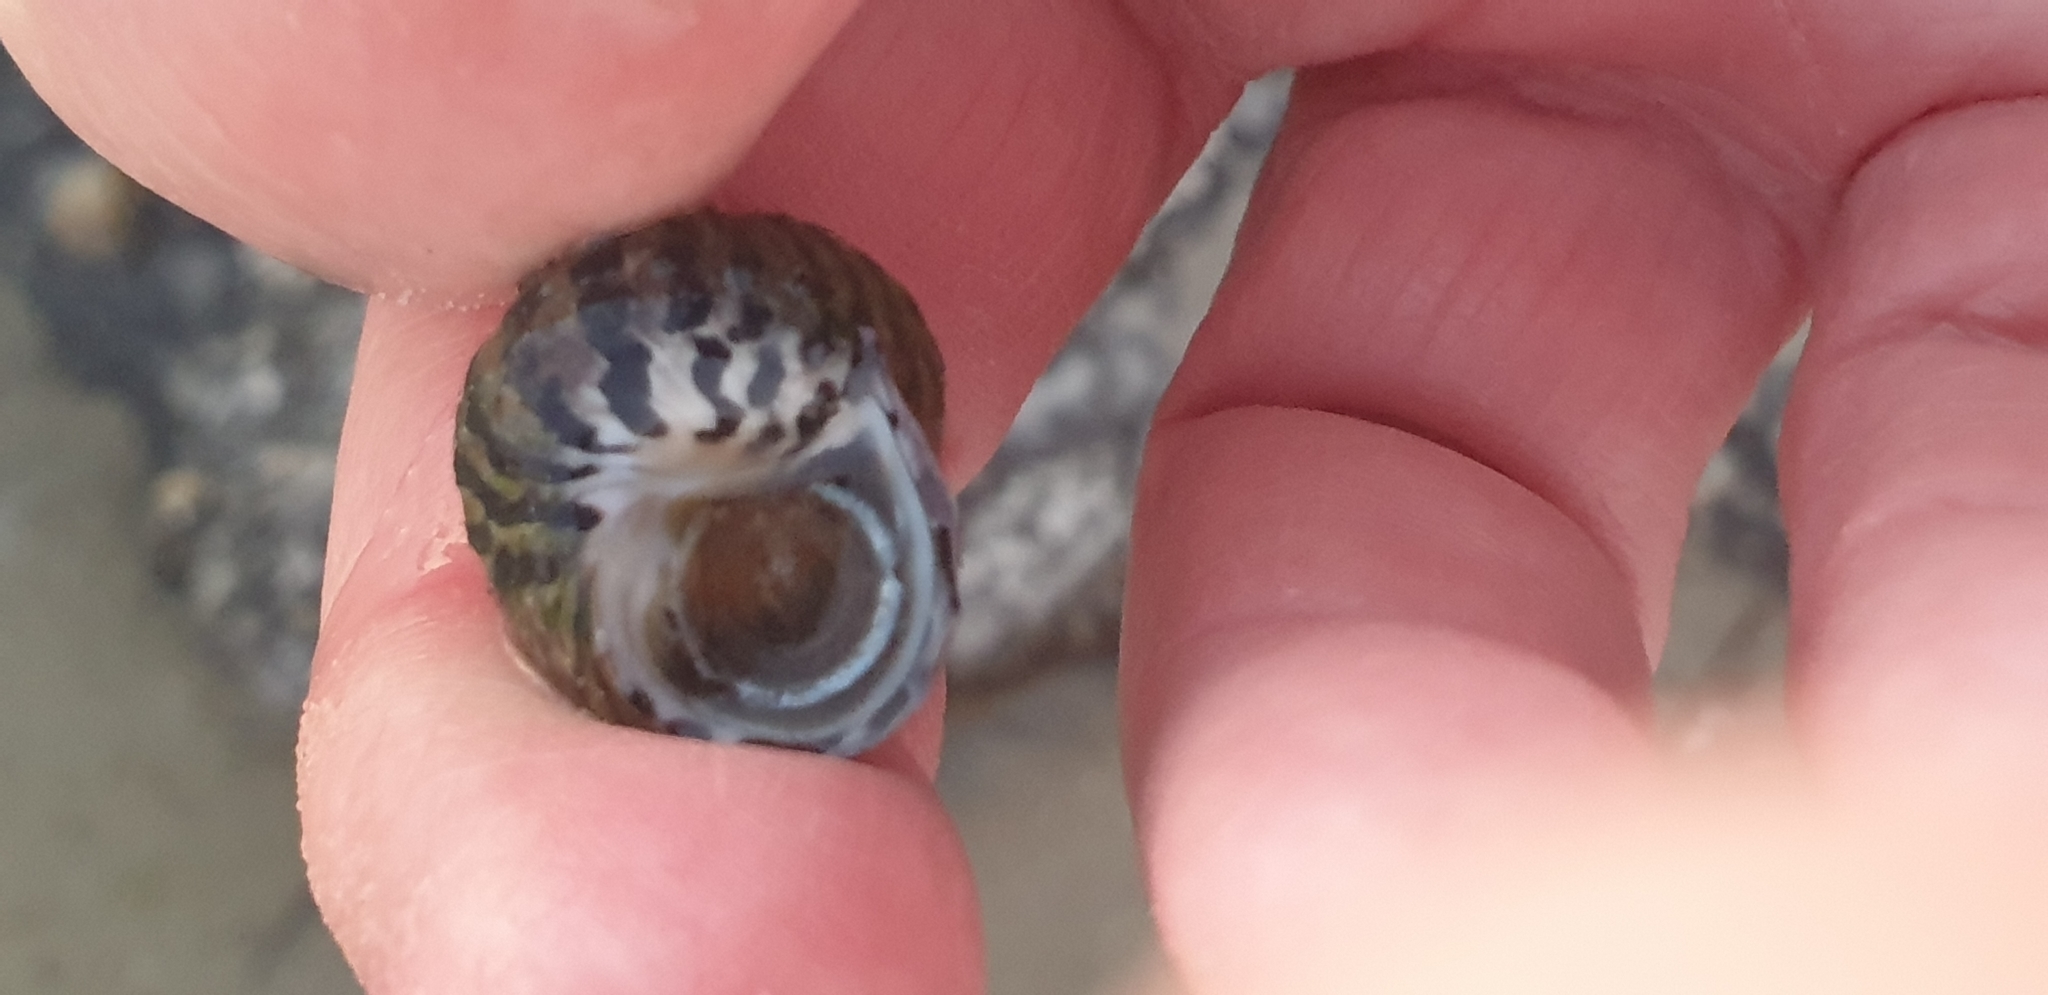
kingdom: Animalia
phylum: Mollusca
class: Gastropoda
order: Trochida
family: Trochidae
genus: Austrocochlea
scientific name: Austrocochlea porcata
